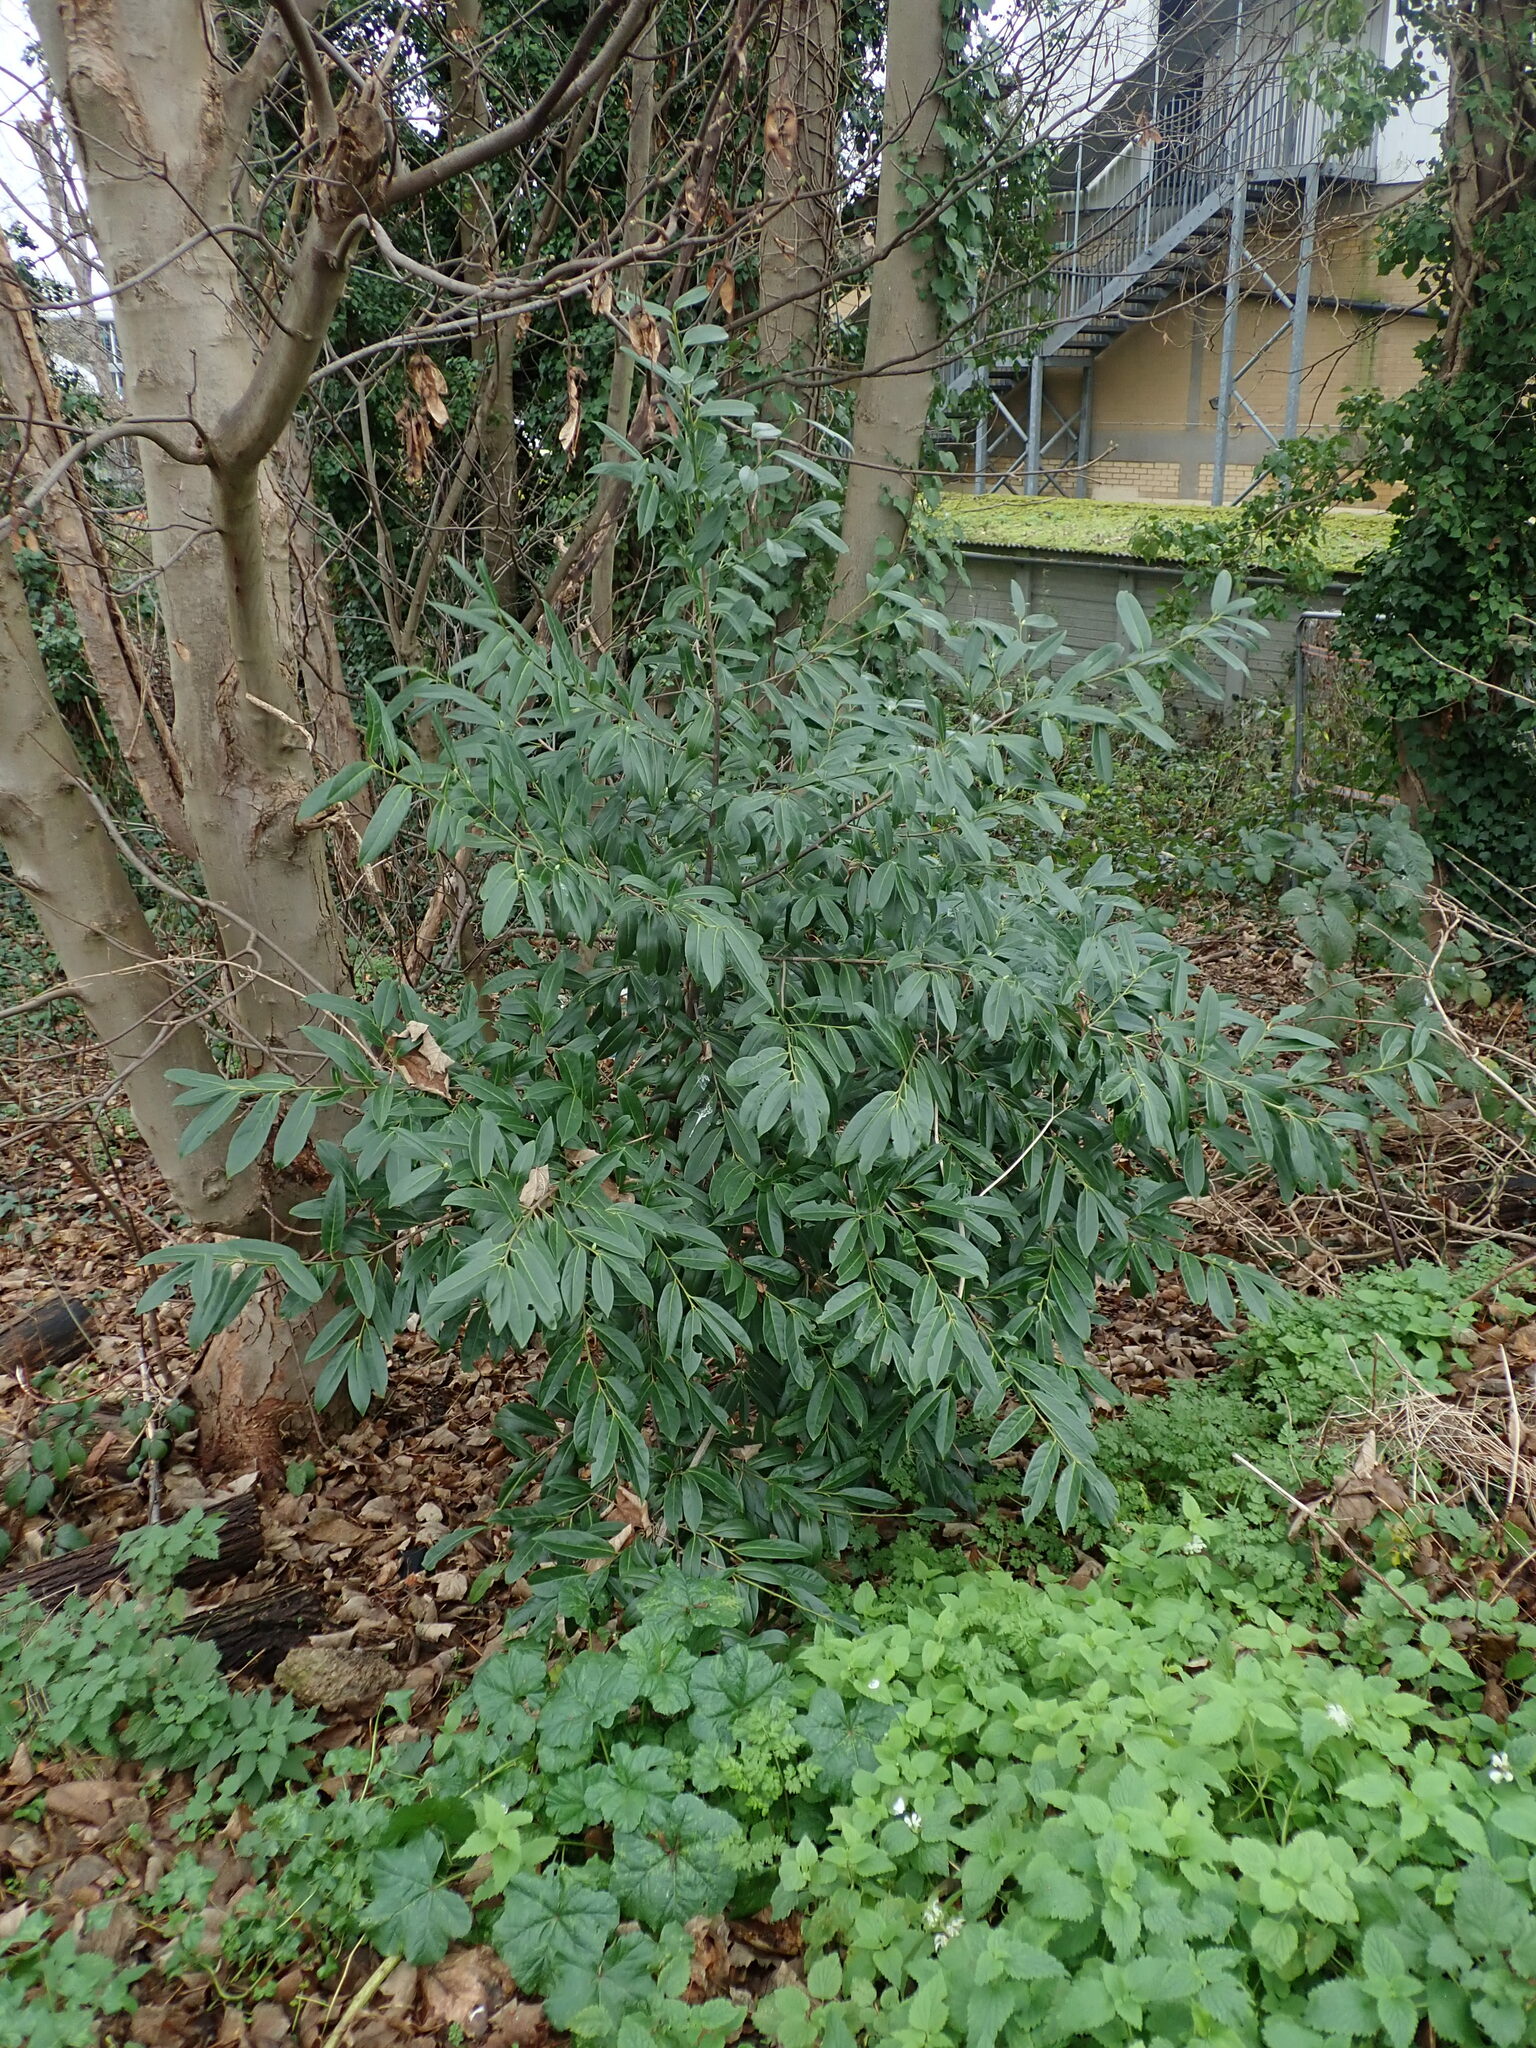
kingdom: Plantae
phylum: Tracheophyta
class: Magnoliopsida
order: Rosales
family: Rosaceae
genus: Prunus
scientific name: Prunus laurocerasus
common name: Cherry laurel
